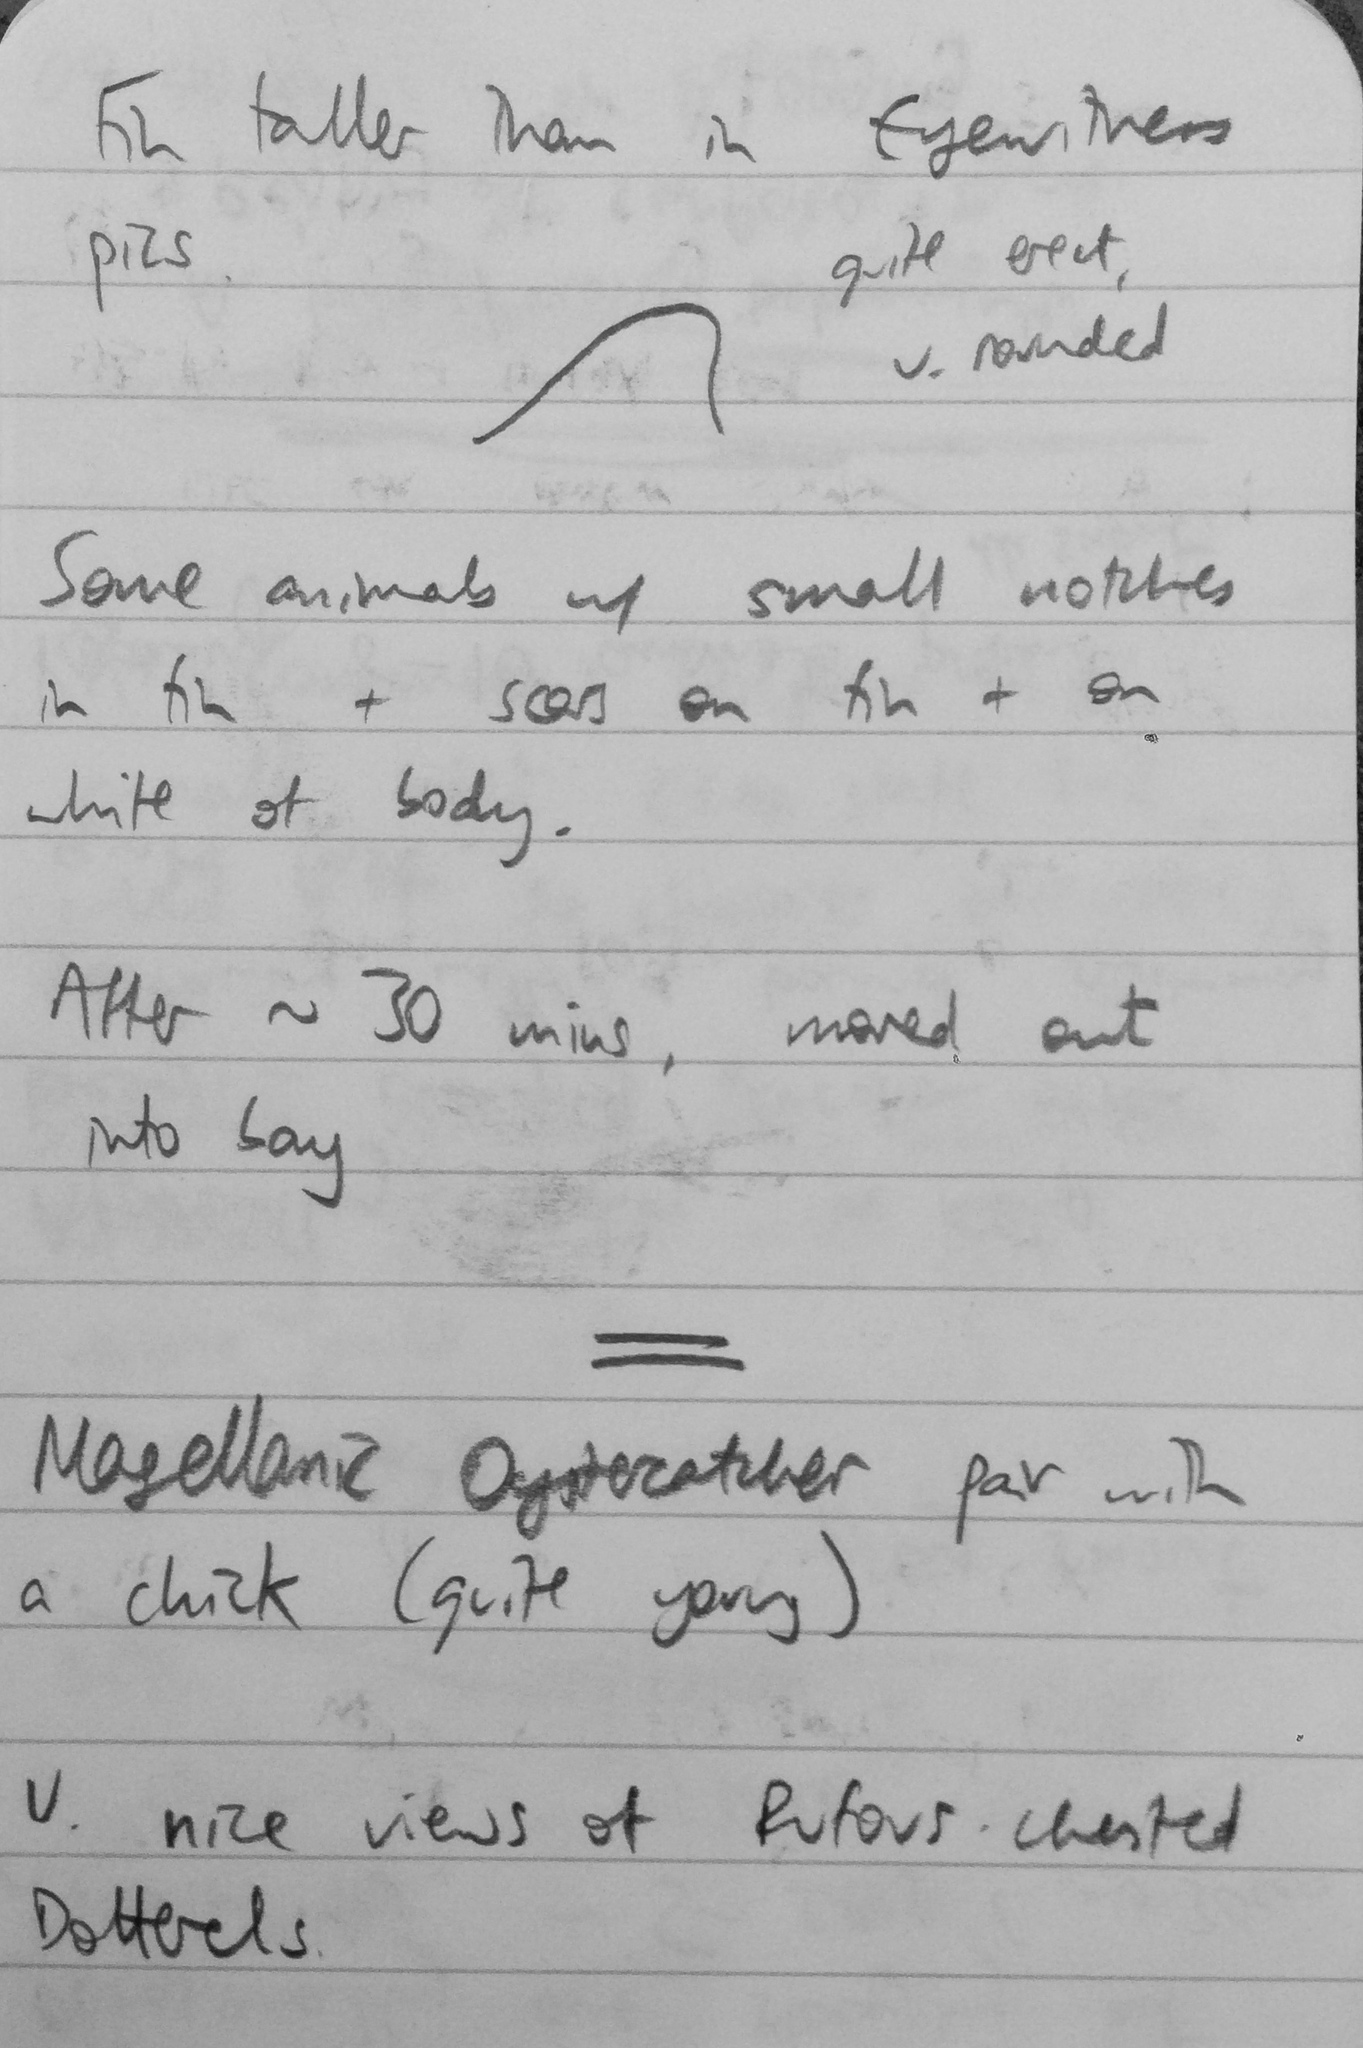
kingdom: Animalia
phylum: Chordata
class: Mammalia
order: Cetacea
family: Delphinidae
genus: Cephalorhynchus
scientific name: Cephalorhynchus commersonii
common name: Commerson's dolphin
